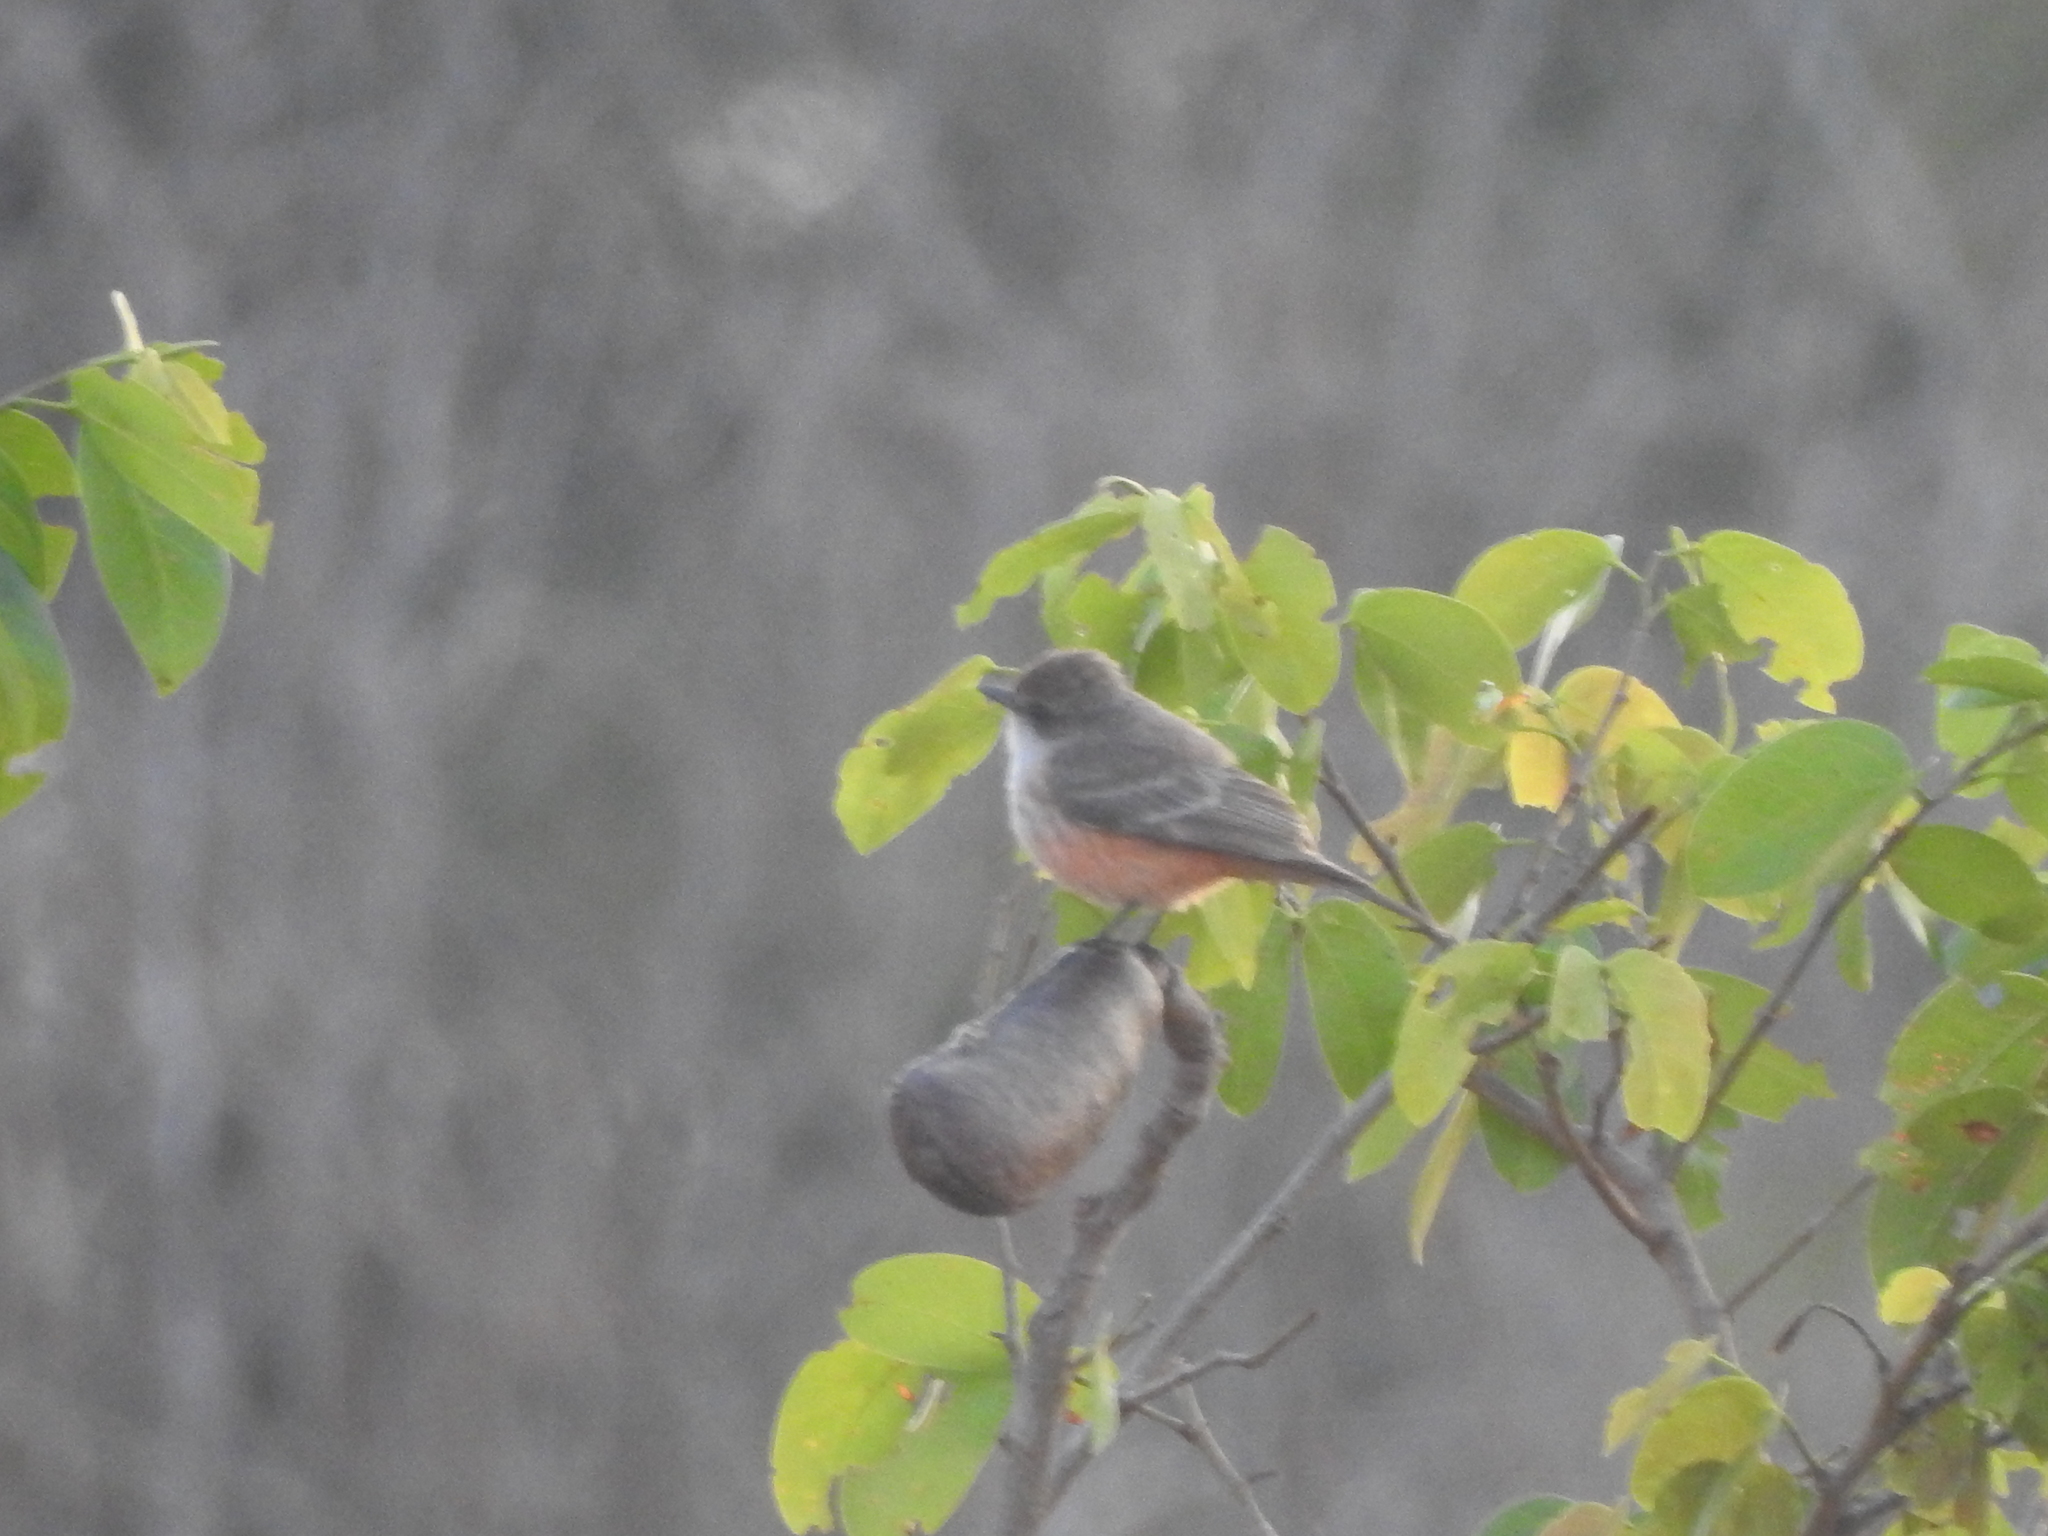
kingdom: Animalia
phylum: Chordata
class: Aves
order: Passeriformes
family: Tyrannidae
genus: Pyrocephalus
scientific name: Pyrocephalus rubinus
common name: Vermilion flycatcher
